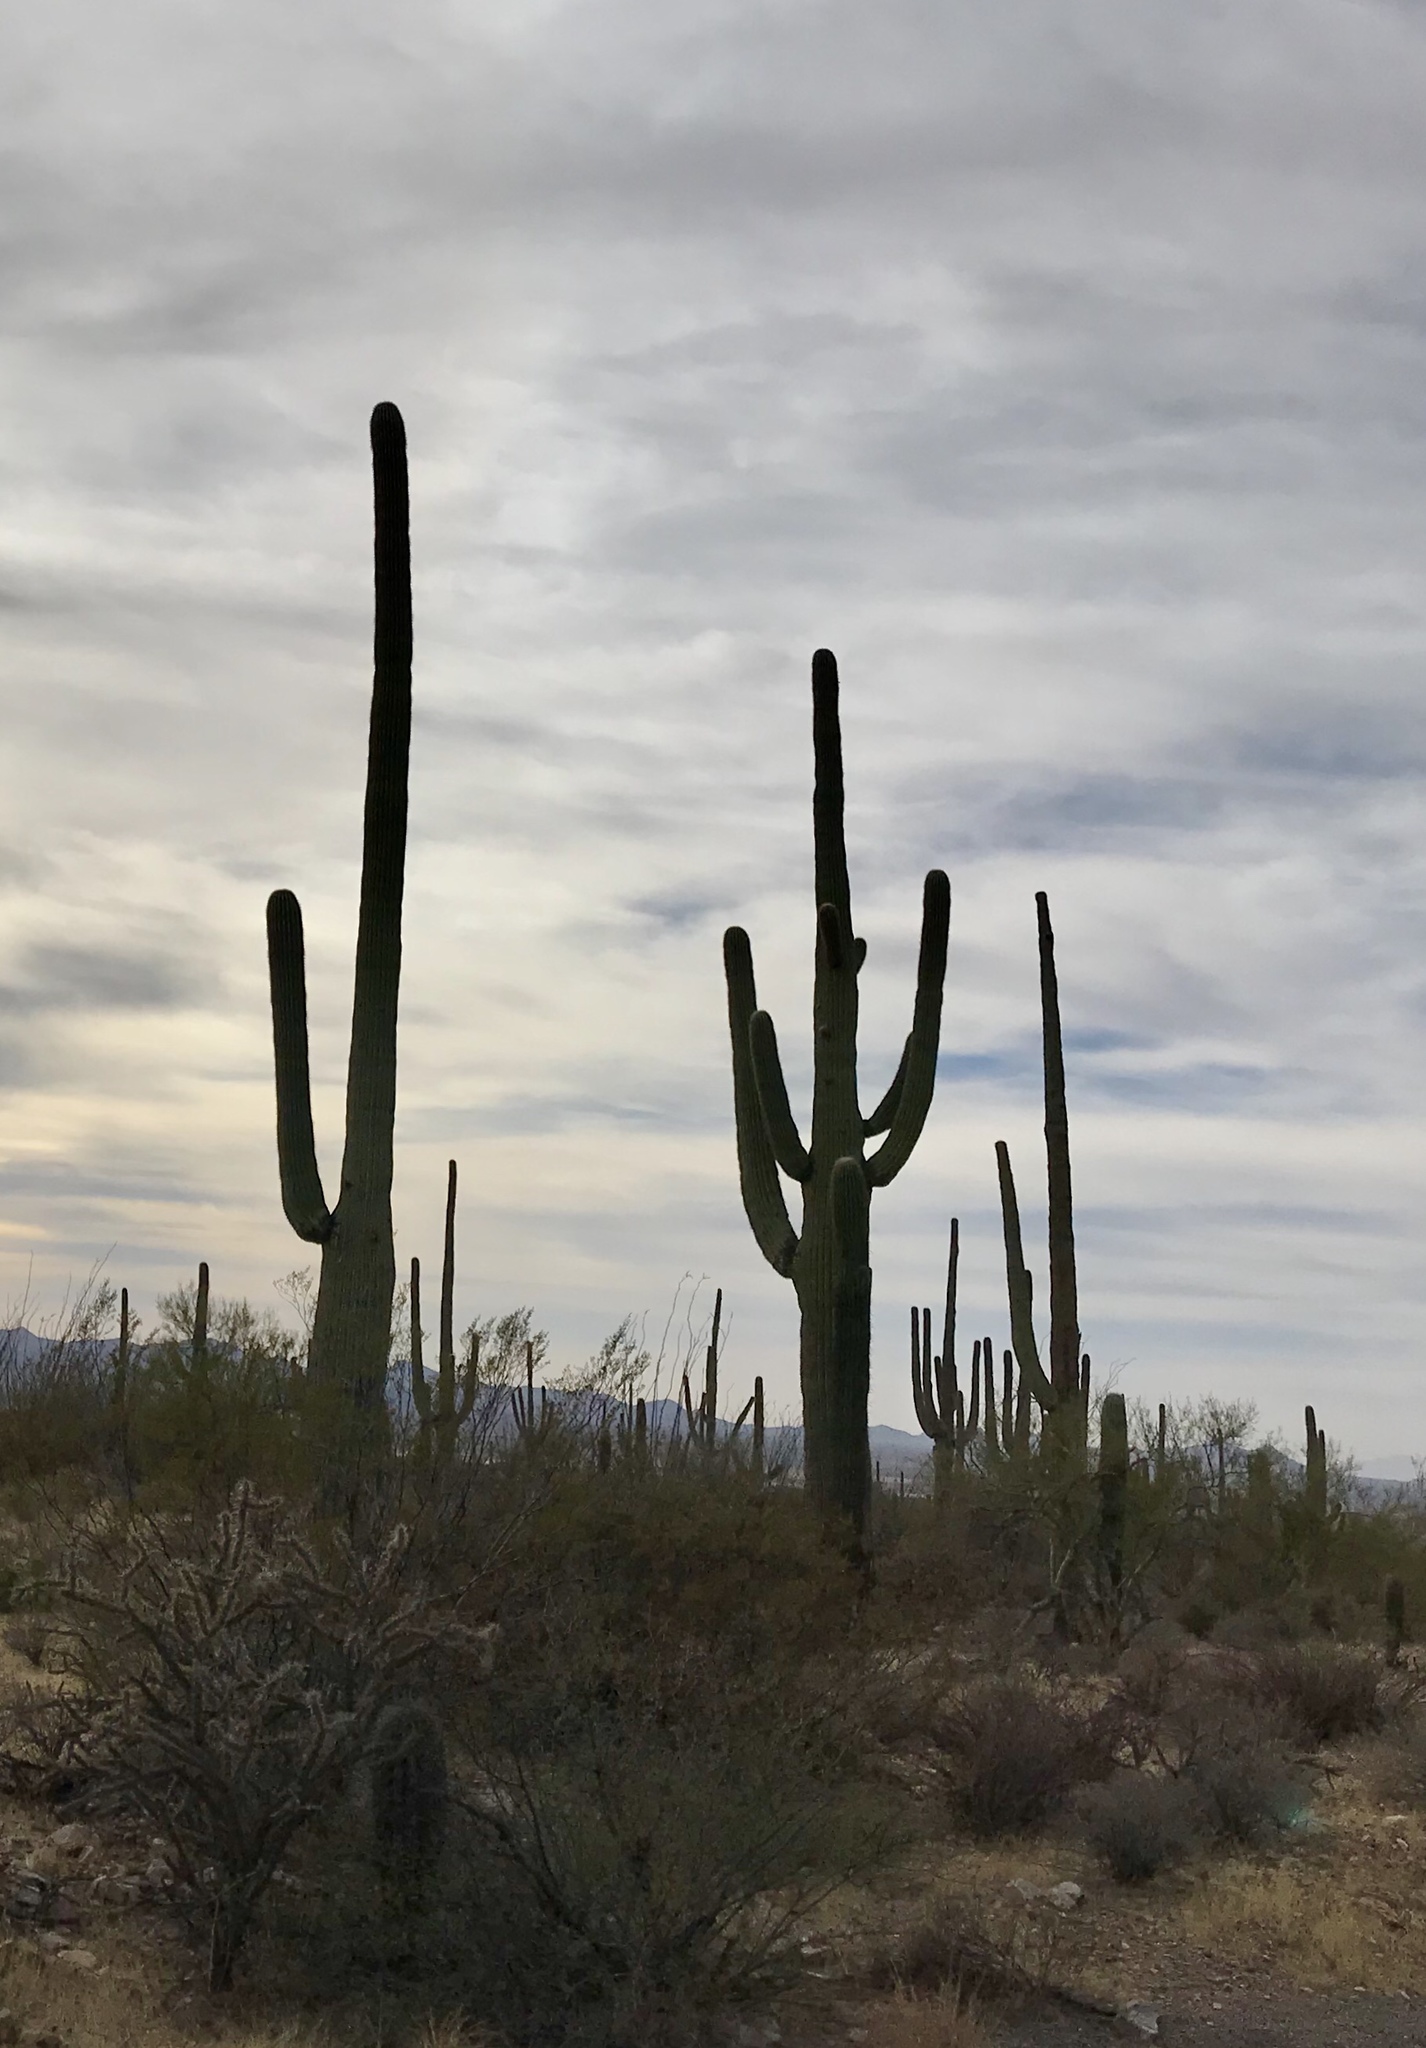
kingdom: Plantae
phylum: Tracheophyta
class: Magnoliopsida
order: Caryophyllales
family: Cactaceae
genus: Carnegiea
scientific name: Carnegiea gigantea
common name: Saguaro
